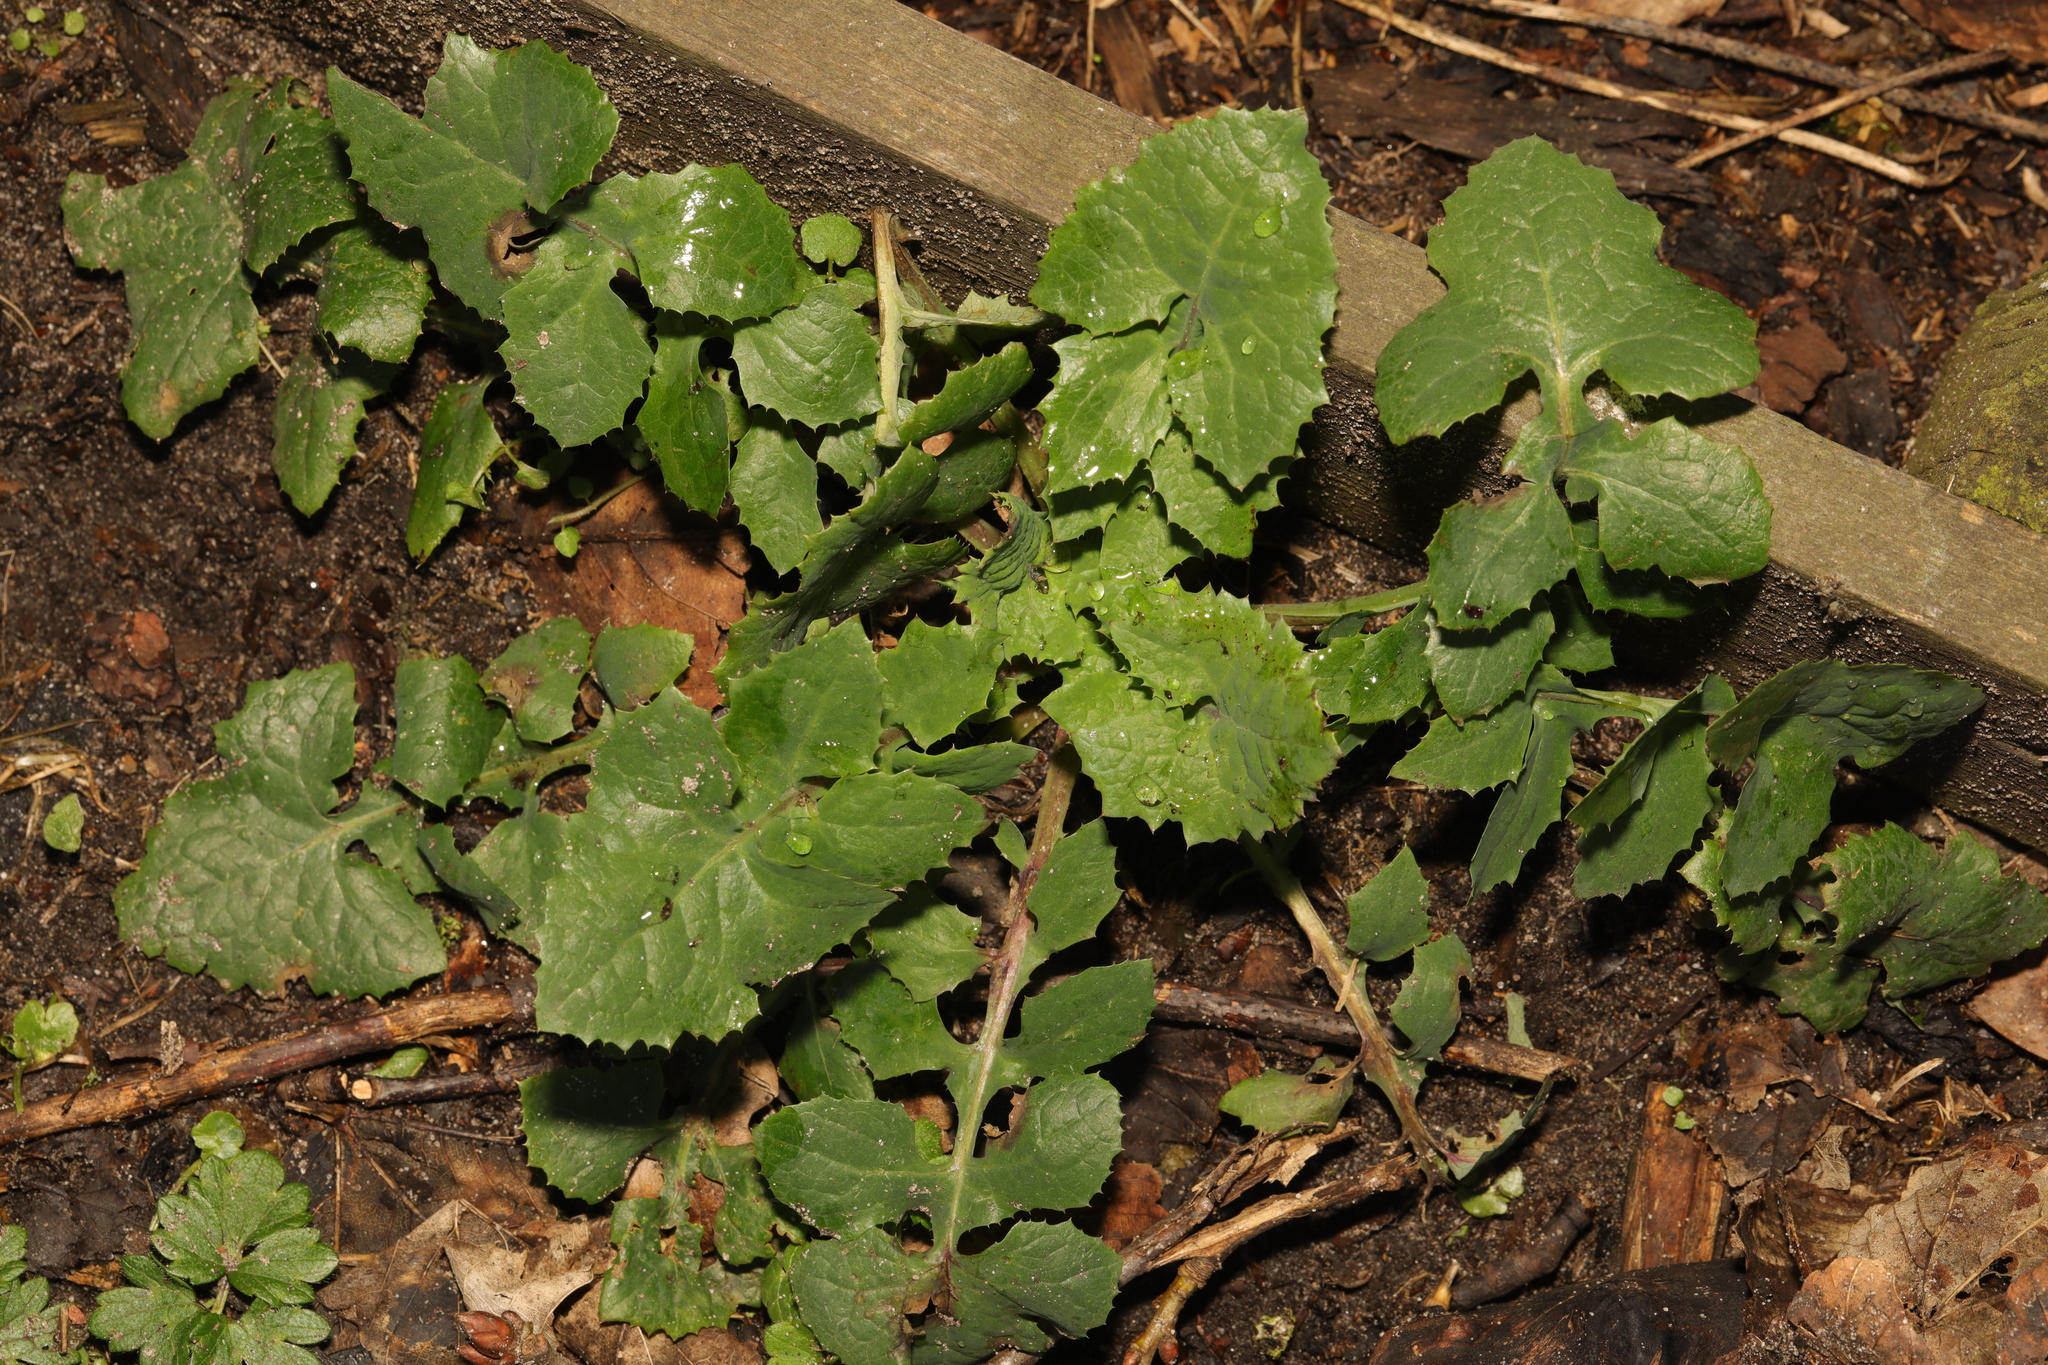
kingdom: Plantae
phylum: Tracheophyta
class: Magnoliopsida
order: Asterales
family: Asteraceae
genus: Sonchus
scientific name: Sonchus oleraceus
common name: Common sowthistle
